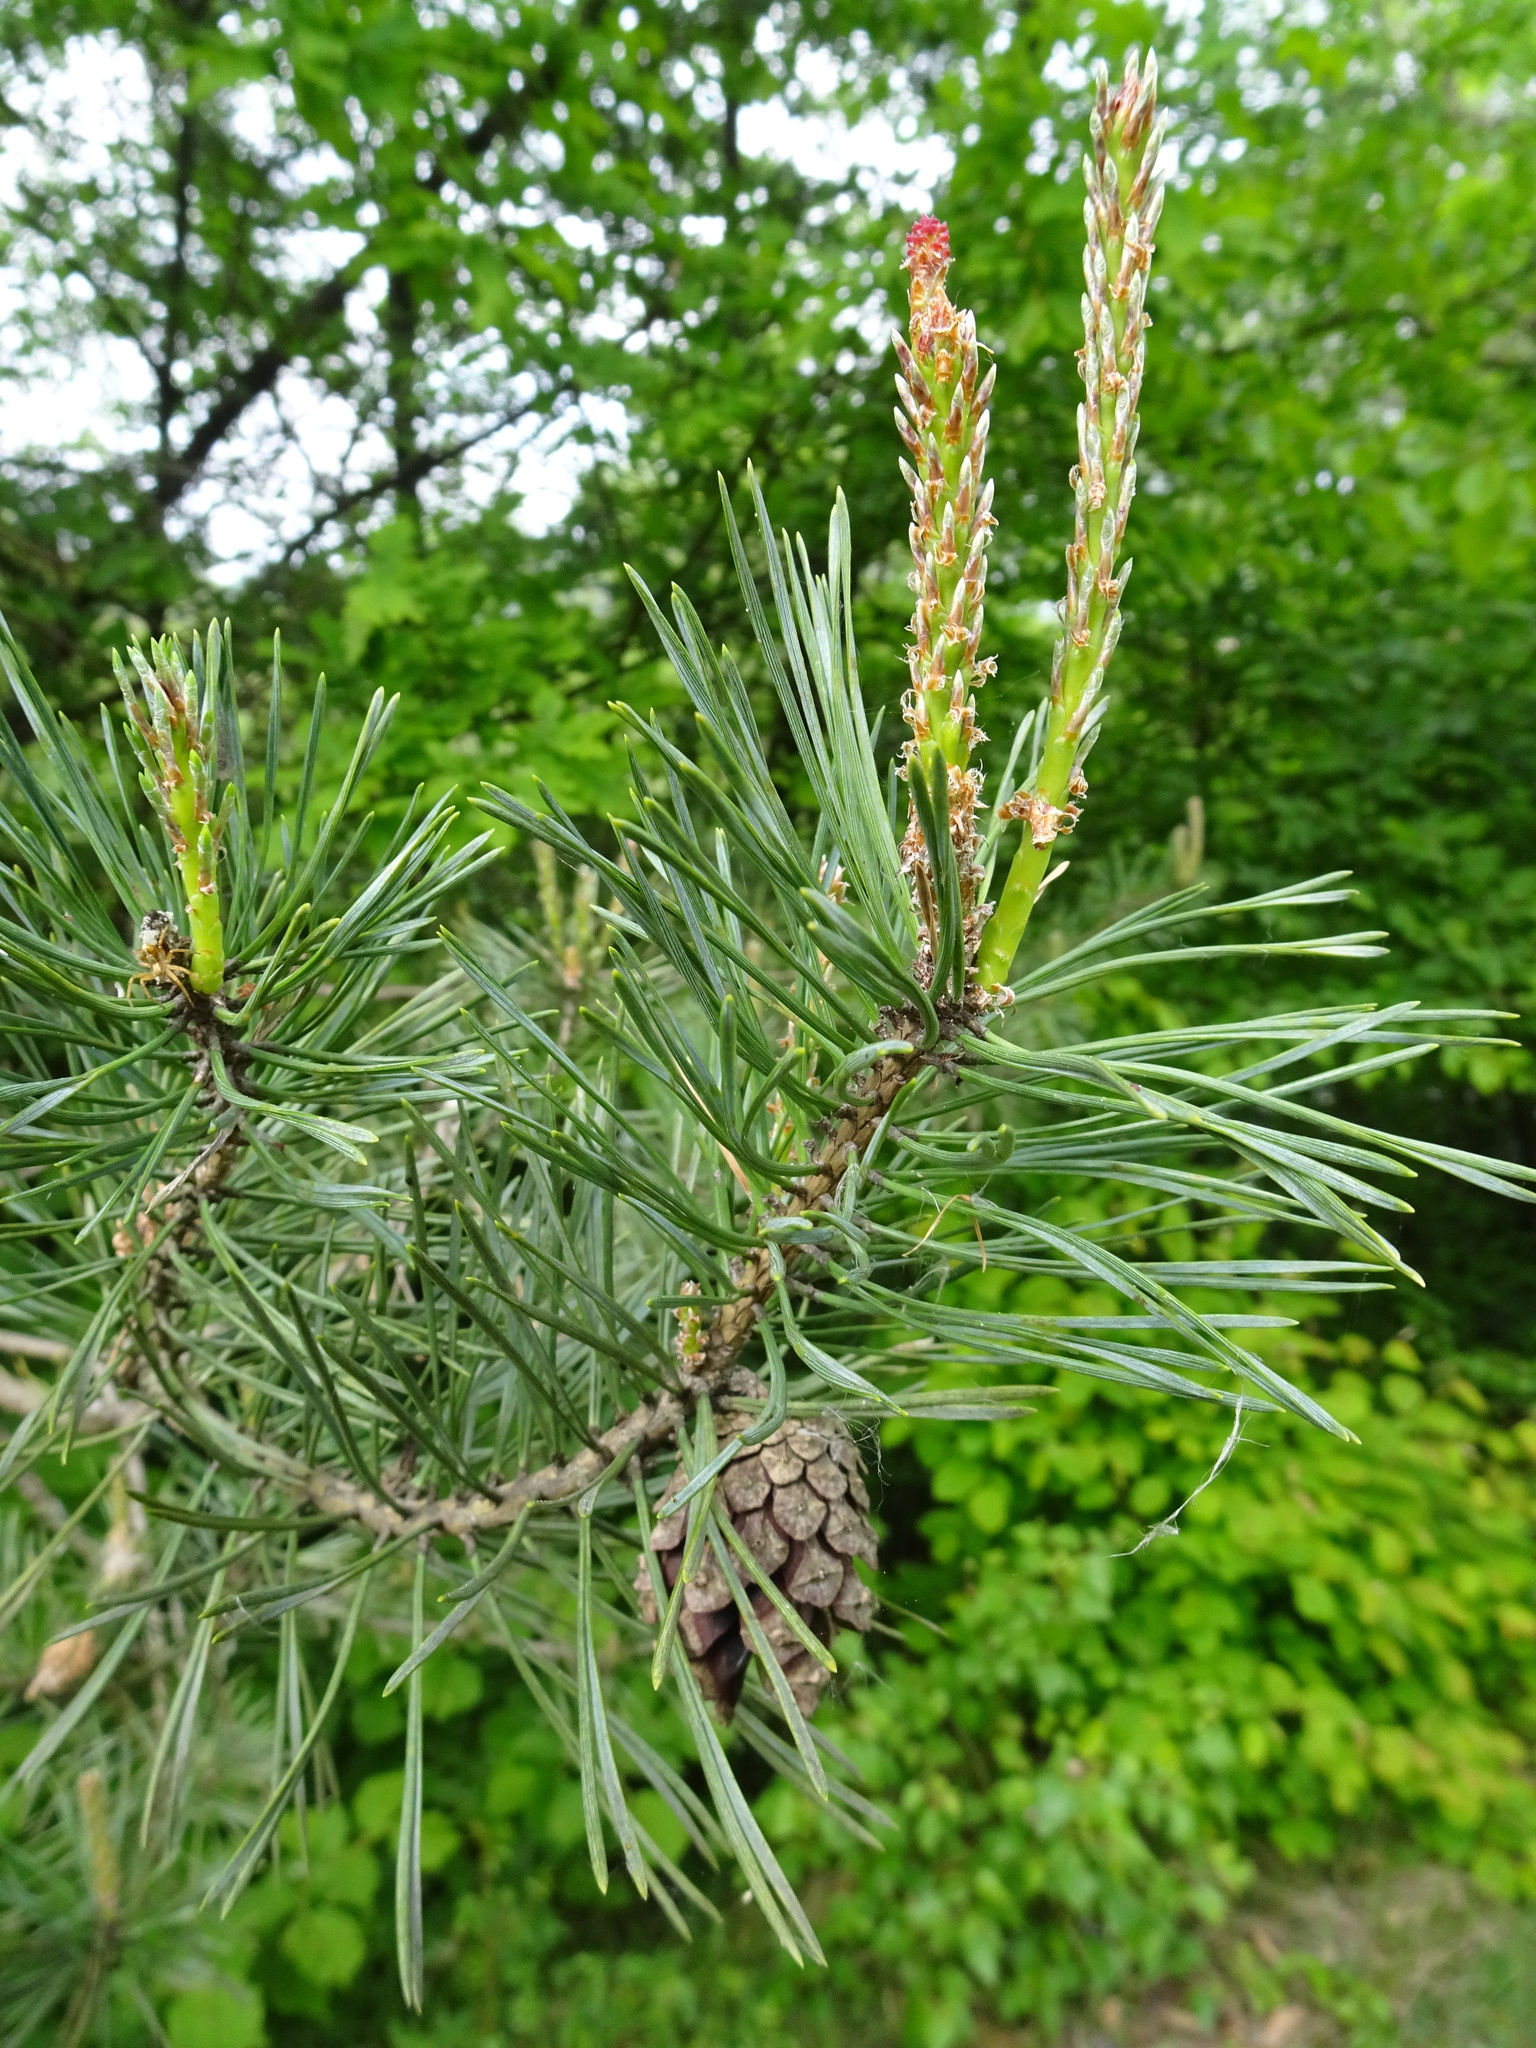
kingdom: Plantae
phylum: Tracheophyta
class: Pinopsida
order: Pinales
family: Pinaceae
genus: Pinus
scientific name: Pinus sylvestris
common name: Scots pine
